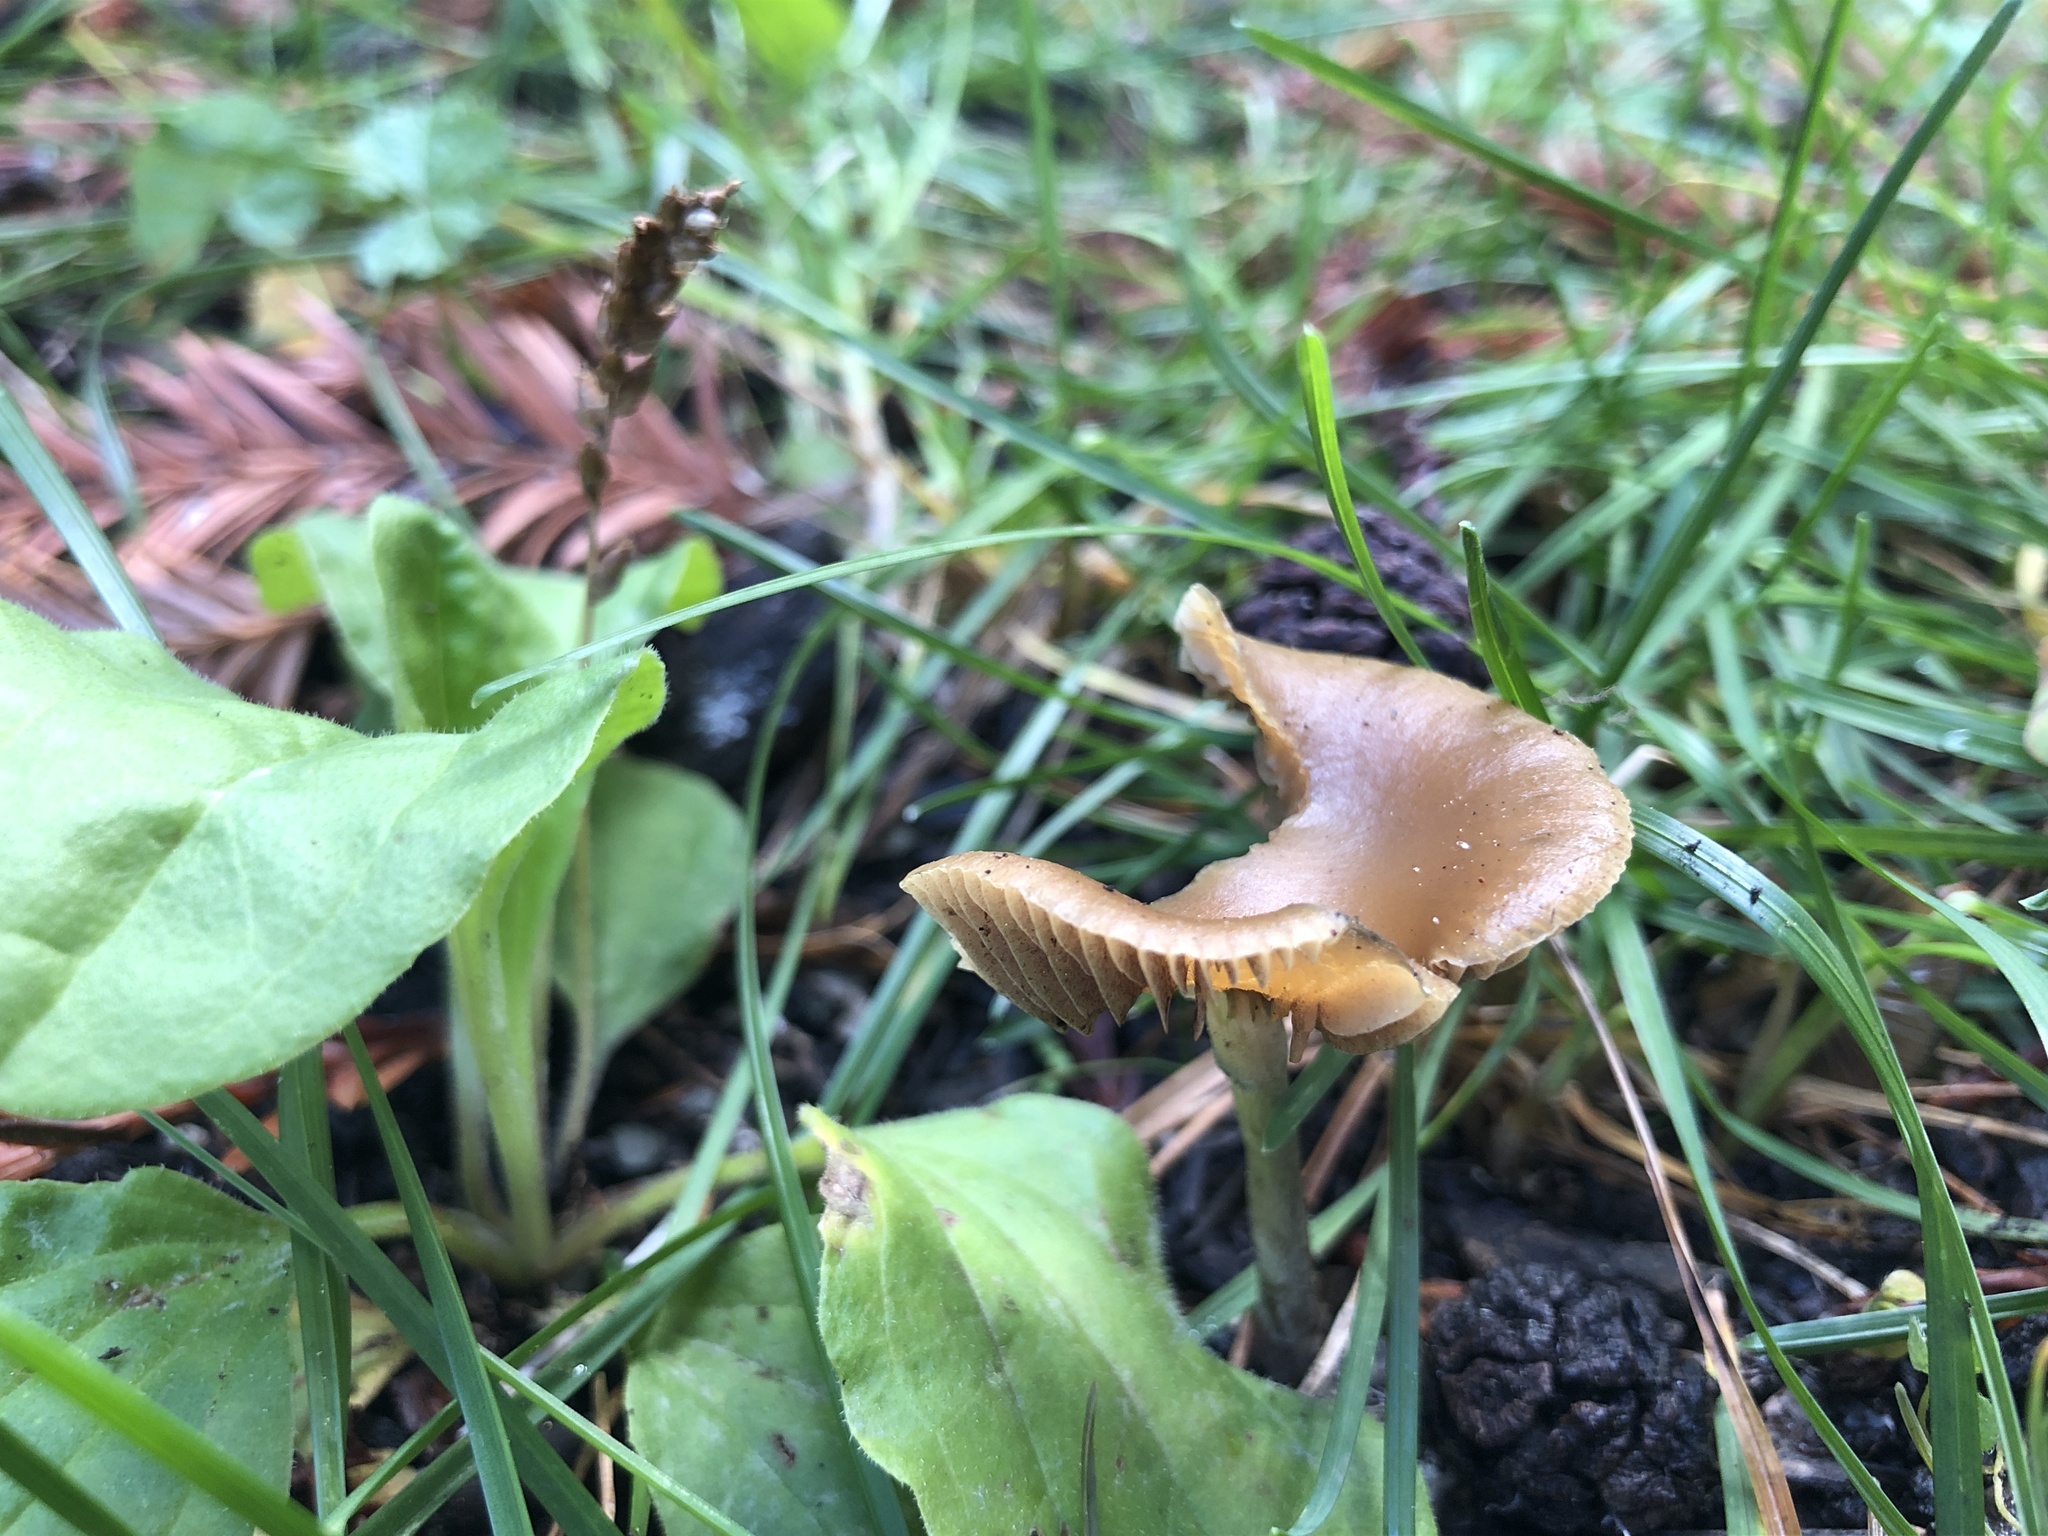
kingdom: Fungi
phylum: Basidiomycota
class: Agaricomycetes
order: Agaricales
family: Hymenogastraceae
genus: Psilocybe
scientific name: Psilocybe cyanescens
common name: Blueleg brownie
